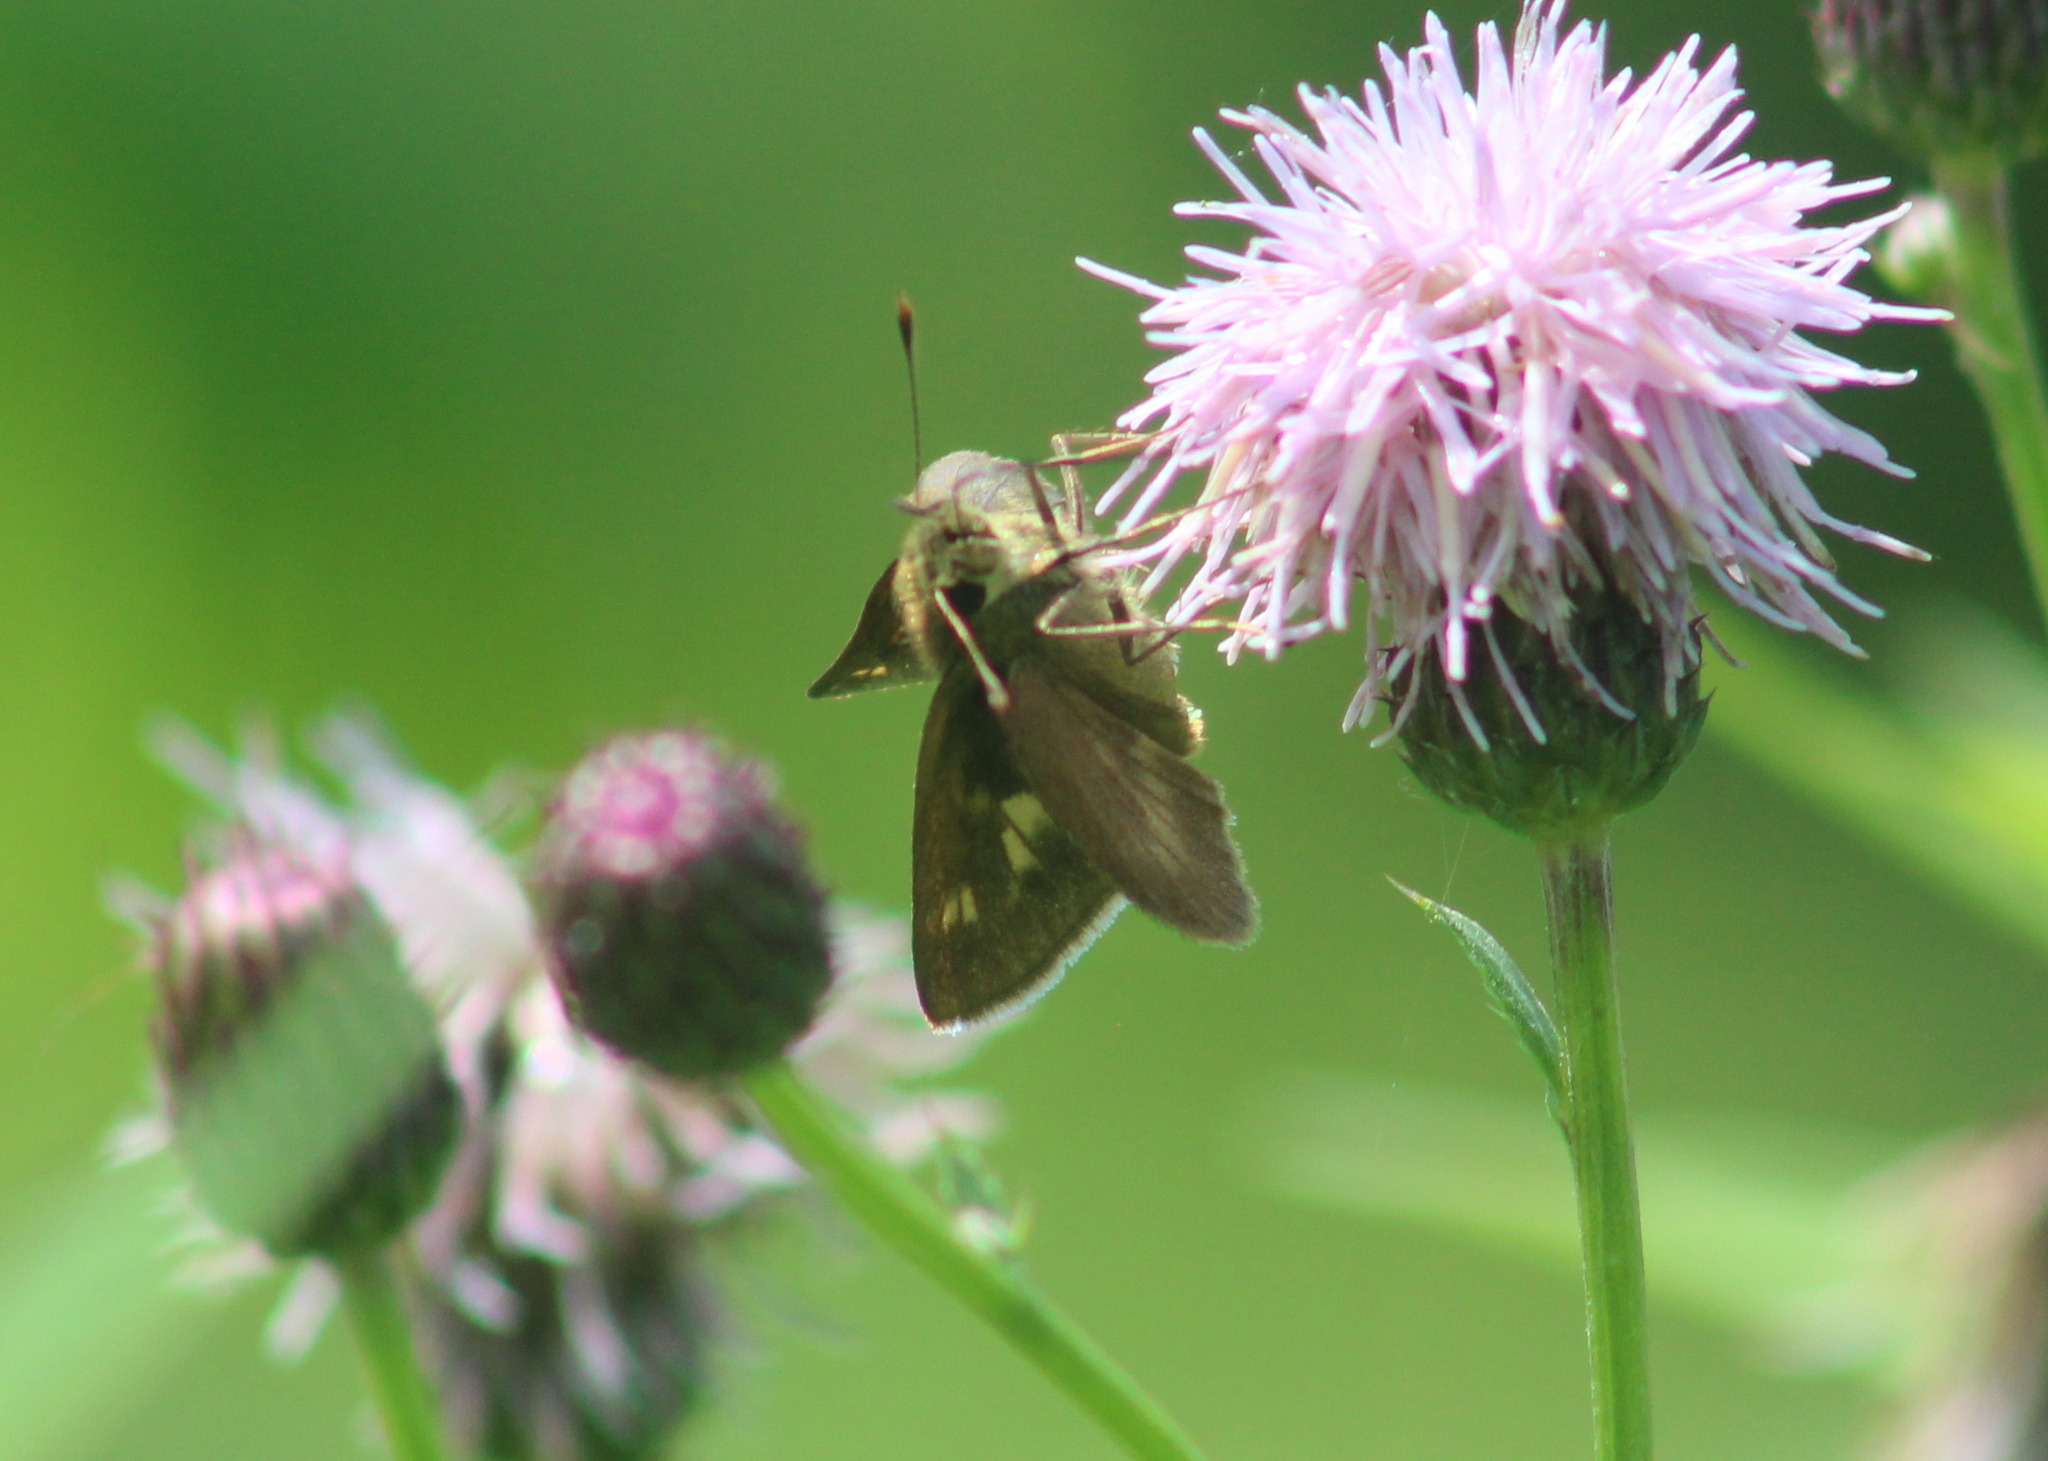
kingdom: Animalia
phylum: Arthropoda
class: Insecta
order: Lepidoptera
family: Hesperiidae
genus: Polites
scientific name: Polites egeremet
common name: Northern broken-dash
